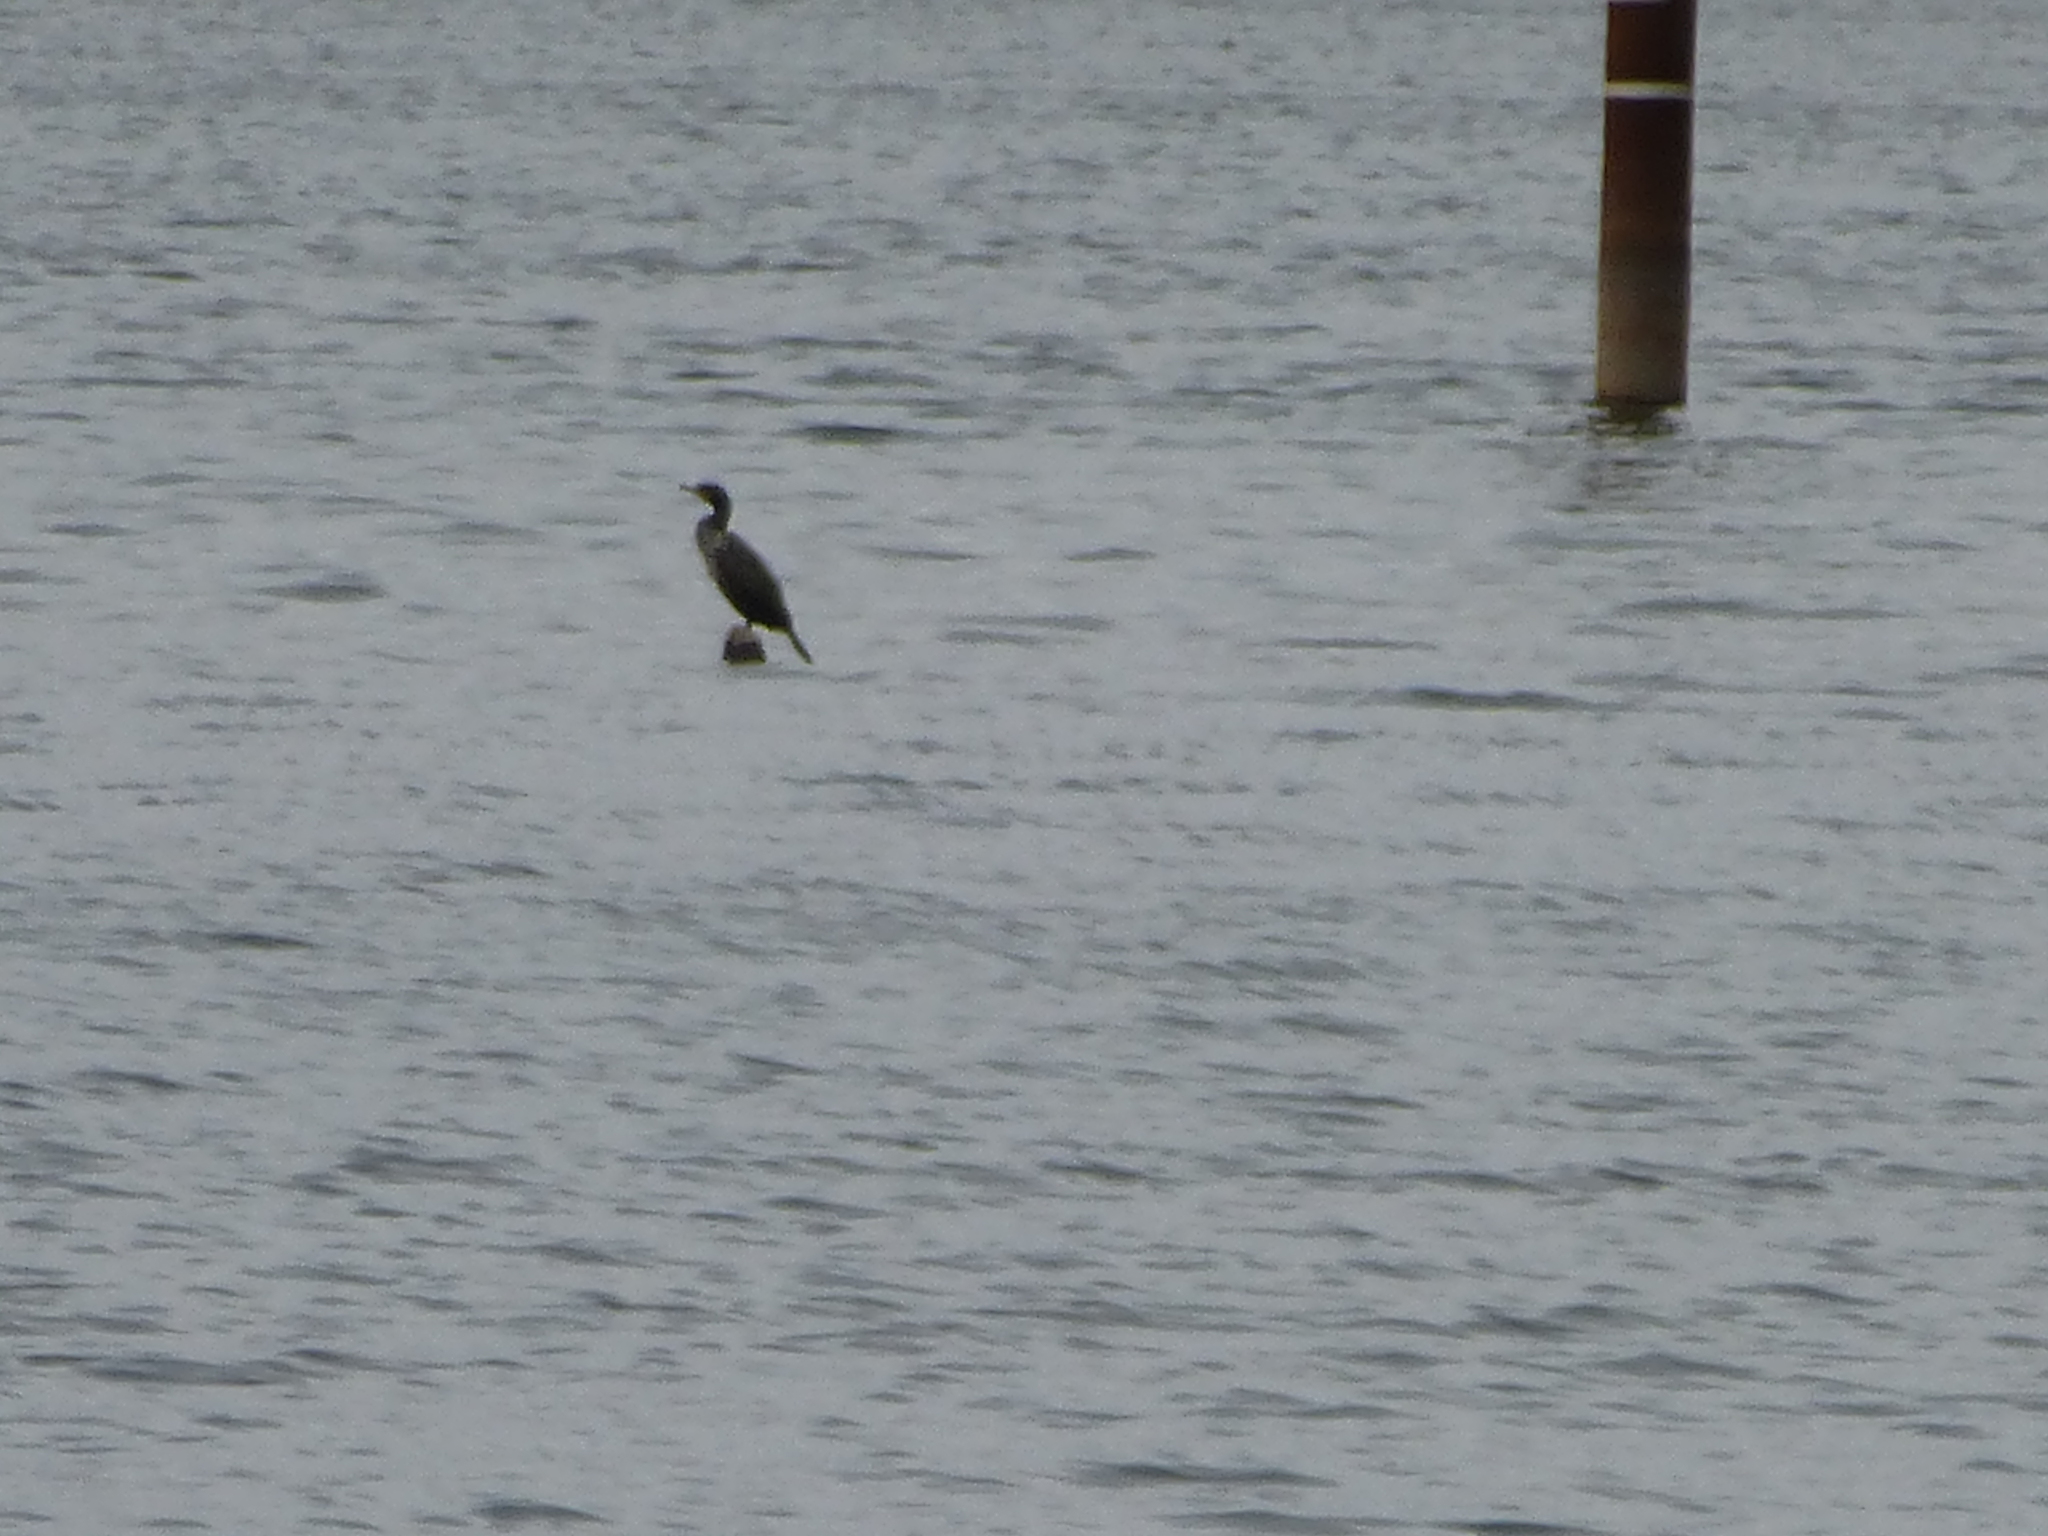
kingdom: Animalia
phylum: Chordata
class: Aves
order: Suliformes
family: Phalacrocoracidae
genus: Phalacrocorax
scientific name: Phalacrocorax auritus
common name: Double-crested cormorant
